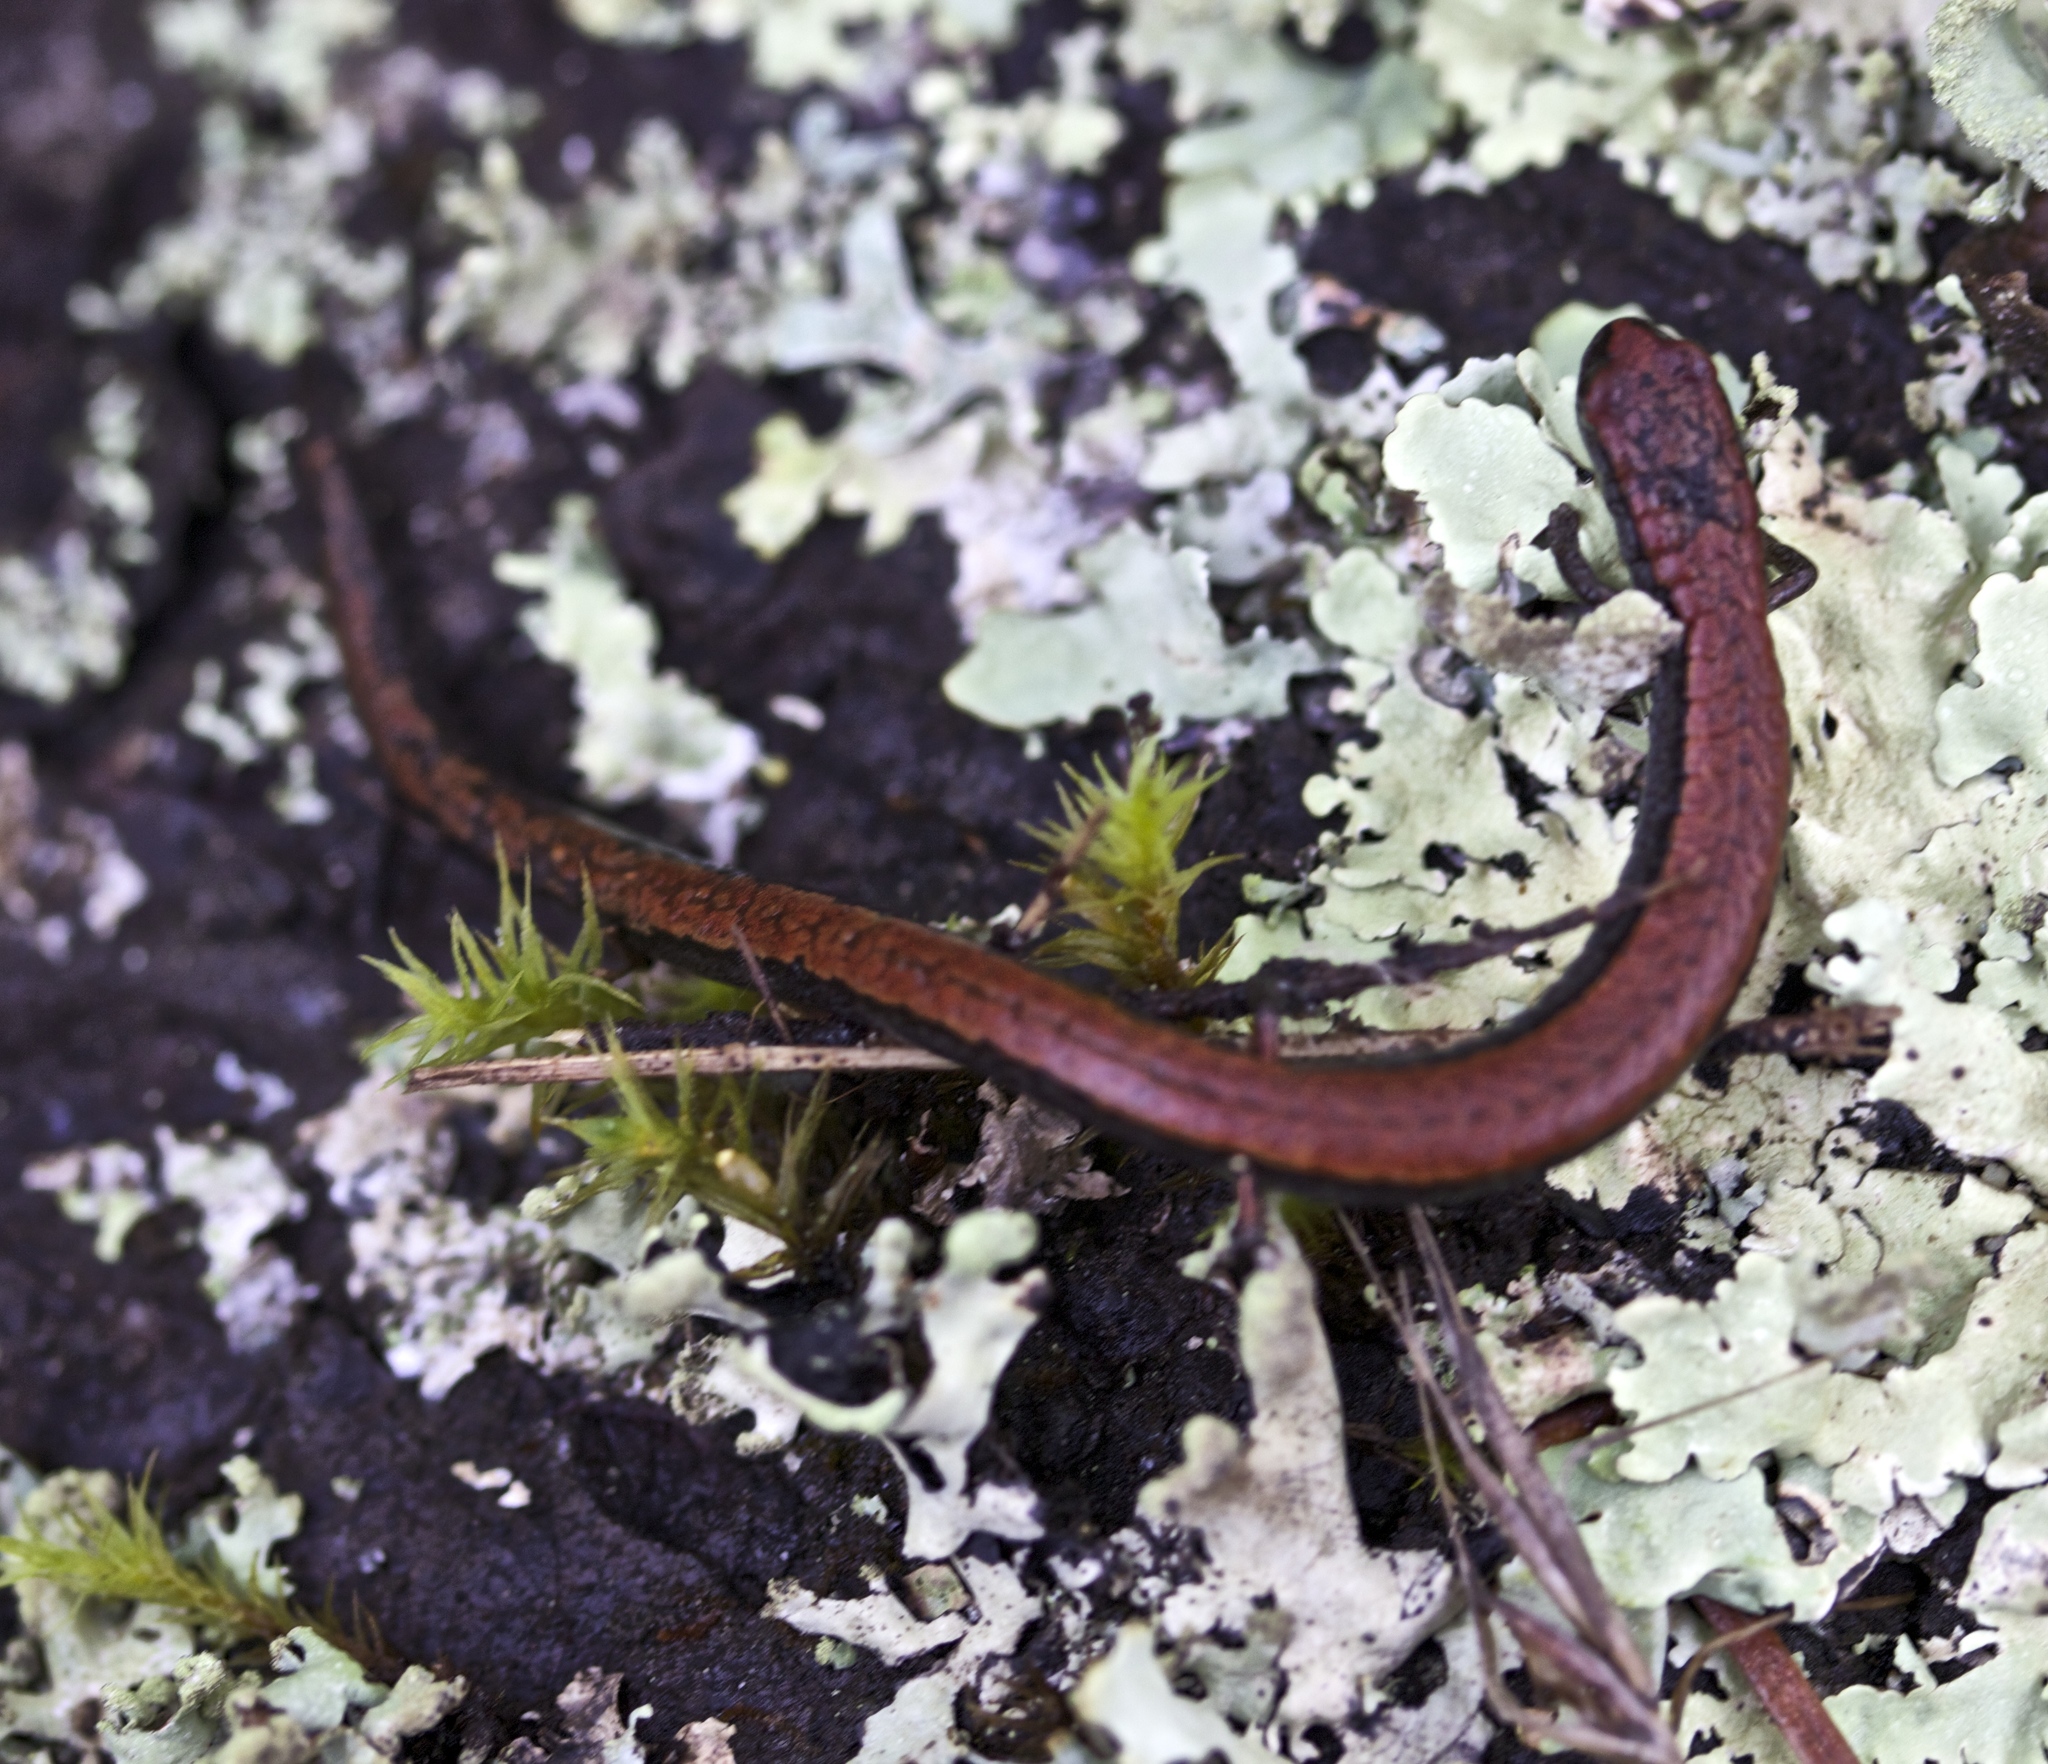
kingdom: Animalia
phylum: Chordata
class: Amphibia
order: Caudata
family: Plethodontidae
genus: Batrachoseps
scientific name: Batrachoseps attenuatus
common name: California slender salamander
